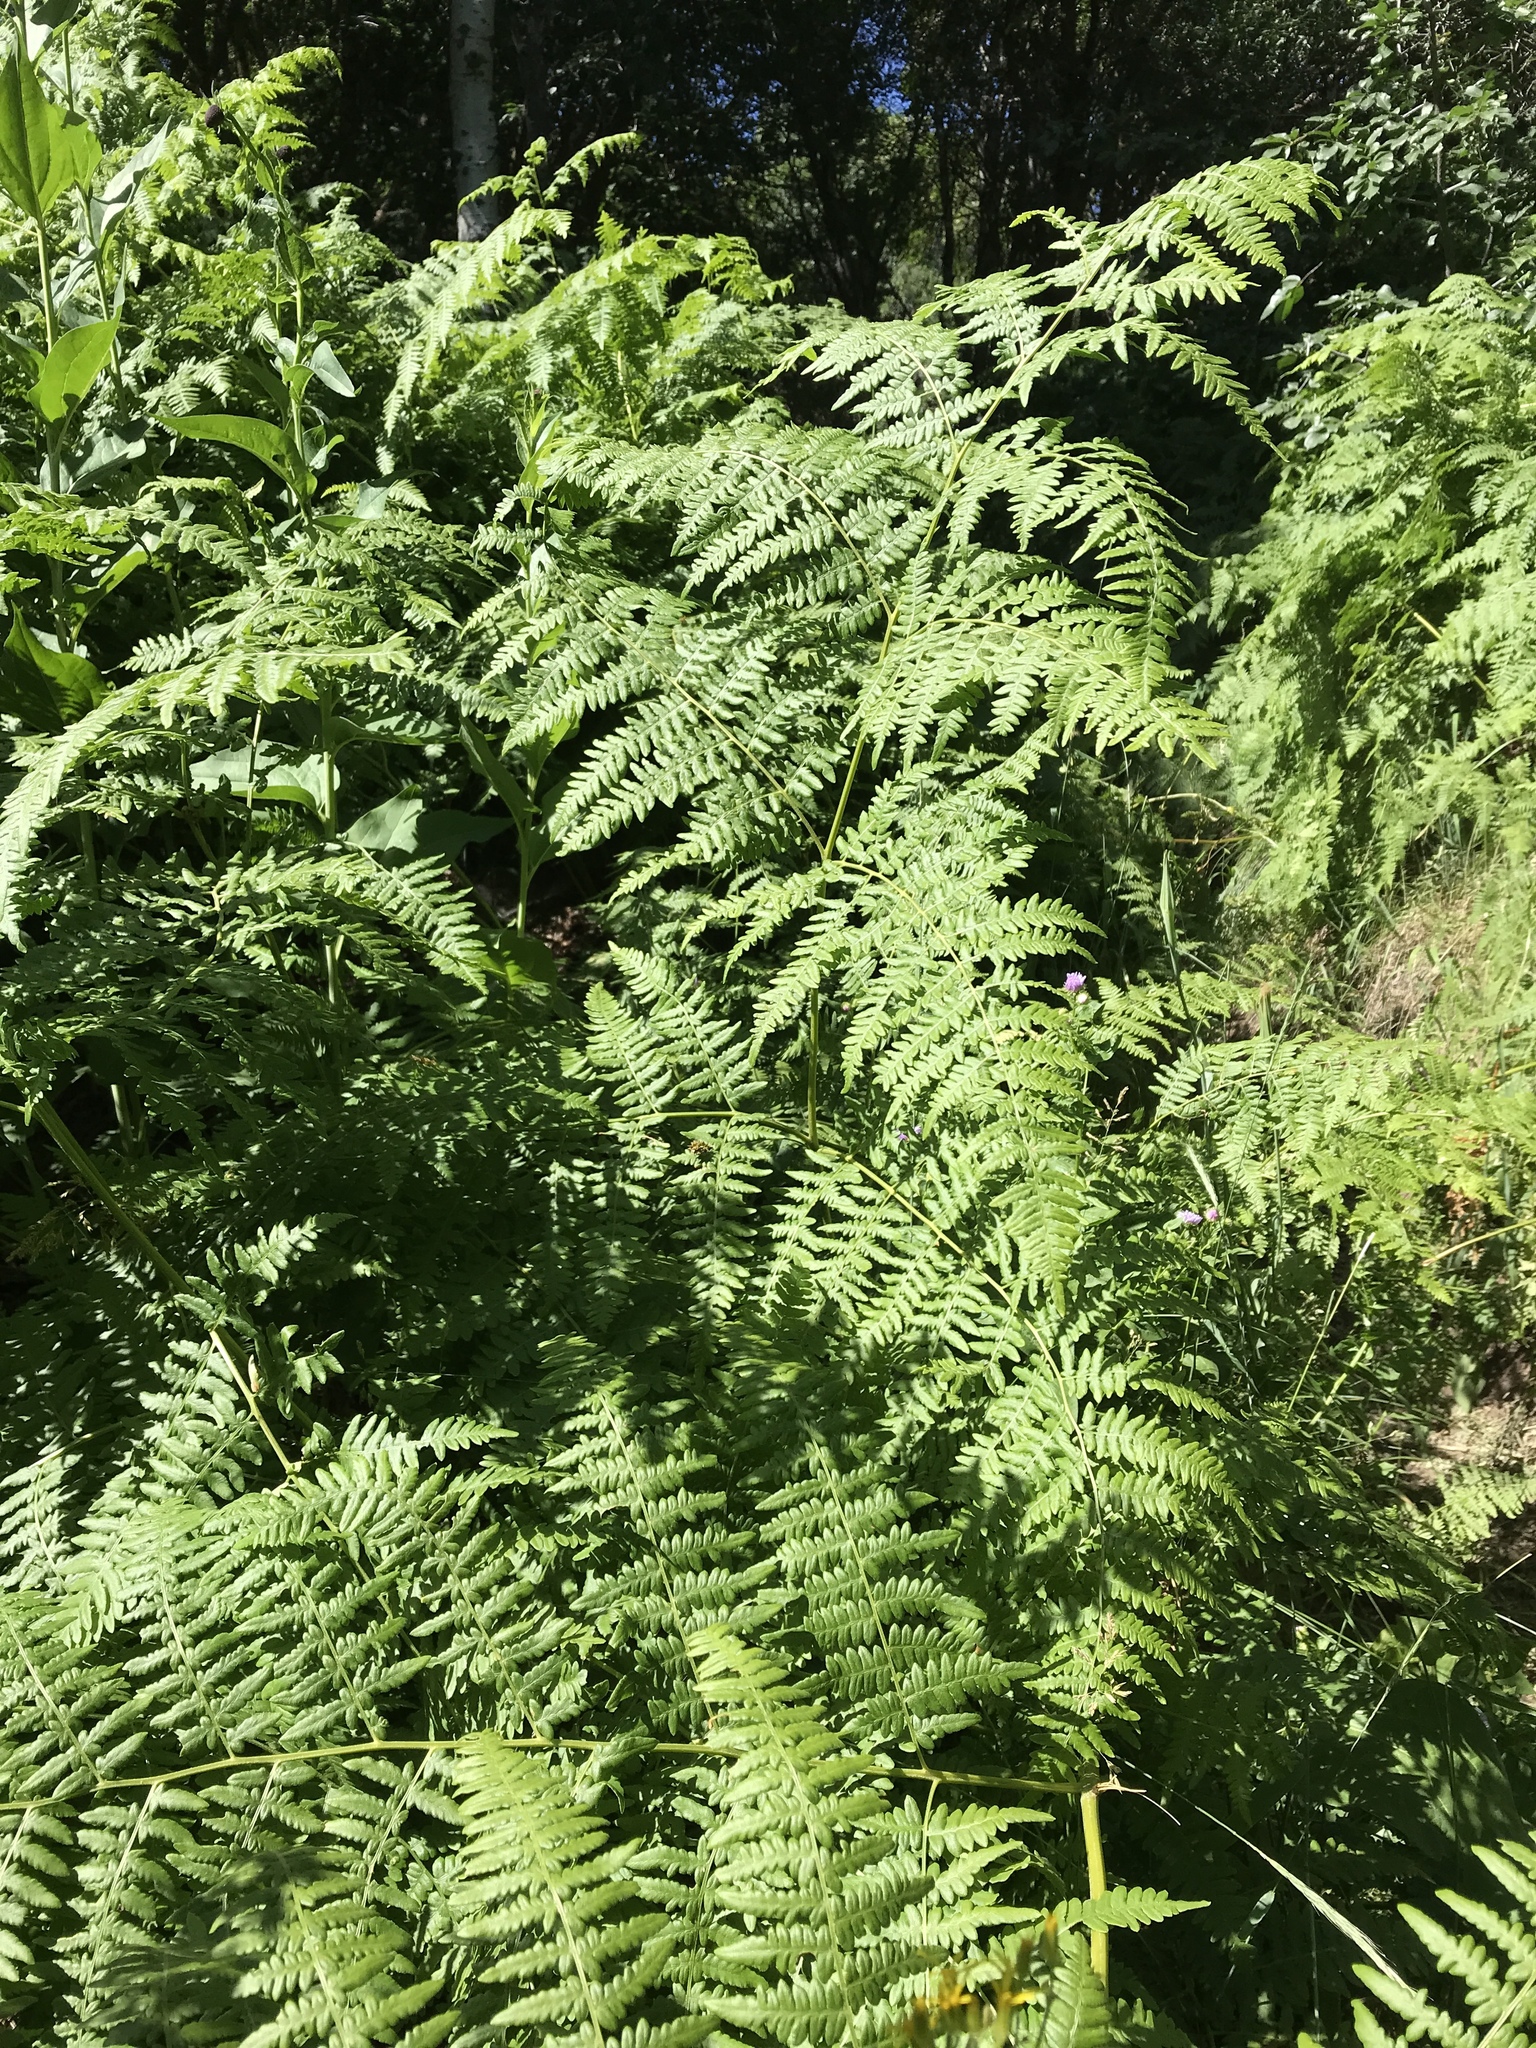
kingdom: Plantae
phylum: Tracheophyta
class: Polypodiopsida
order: Polypodiales
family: Dennstaedtiaceae
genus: Pteridium
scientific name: Pteridium aquilinum
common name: Bracken
